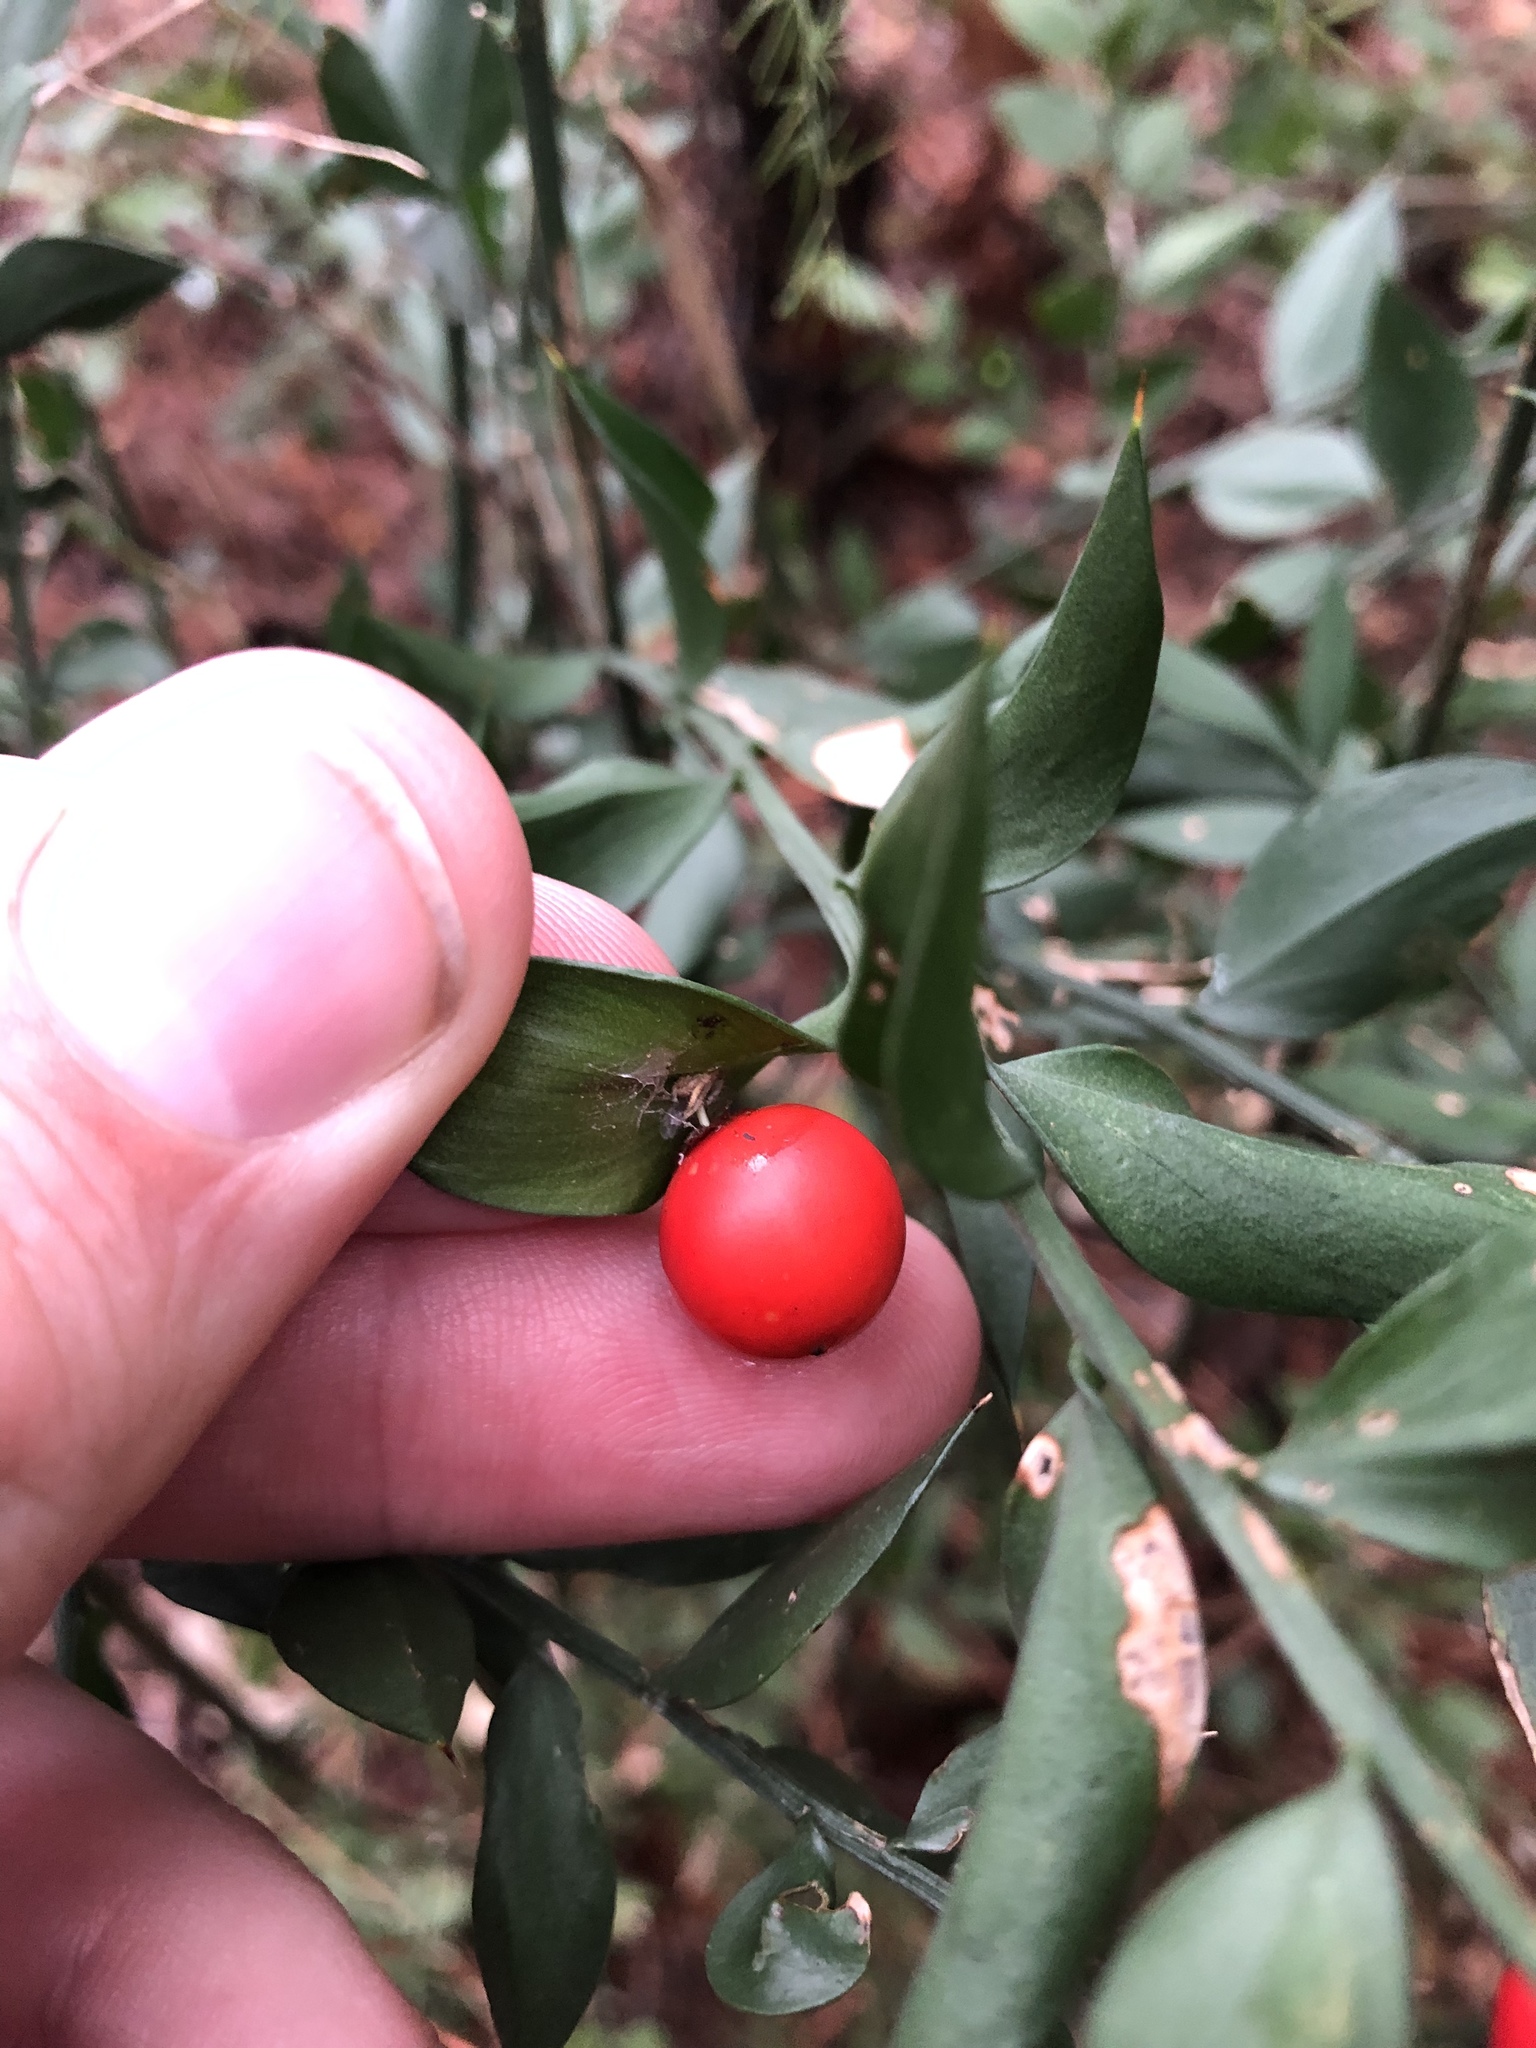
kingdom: Plantae
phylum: Tracheophyta
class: Liliopsida
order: Asparagales
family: Asparagaceae
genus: Ruscus
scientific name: Ruscus aculeatus
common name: Butcher's-broom
